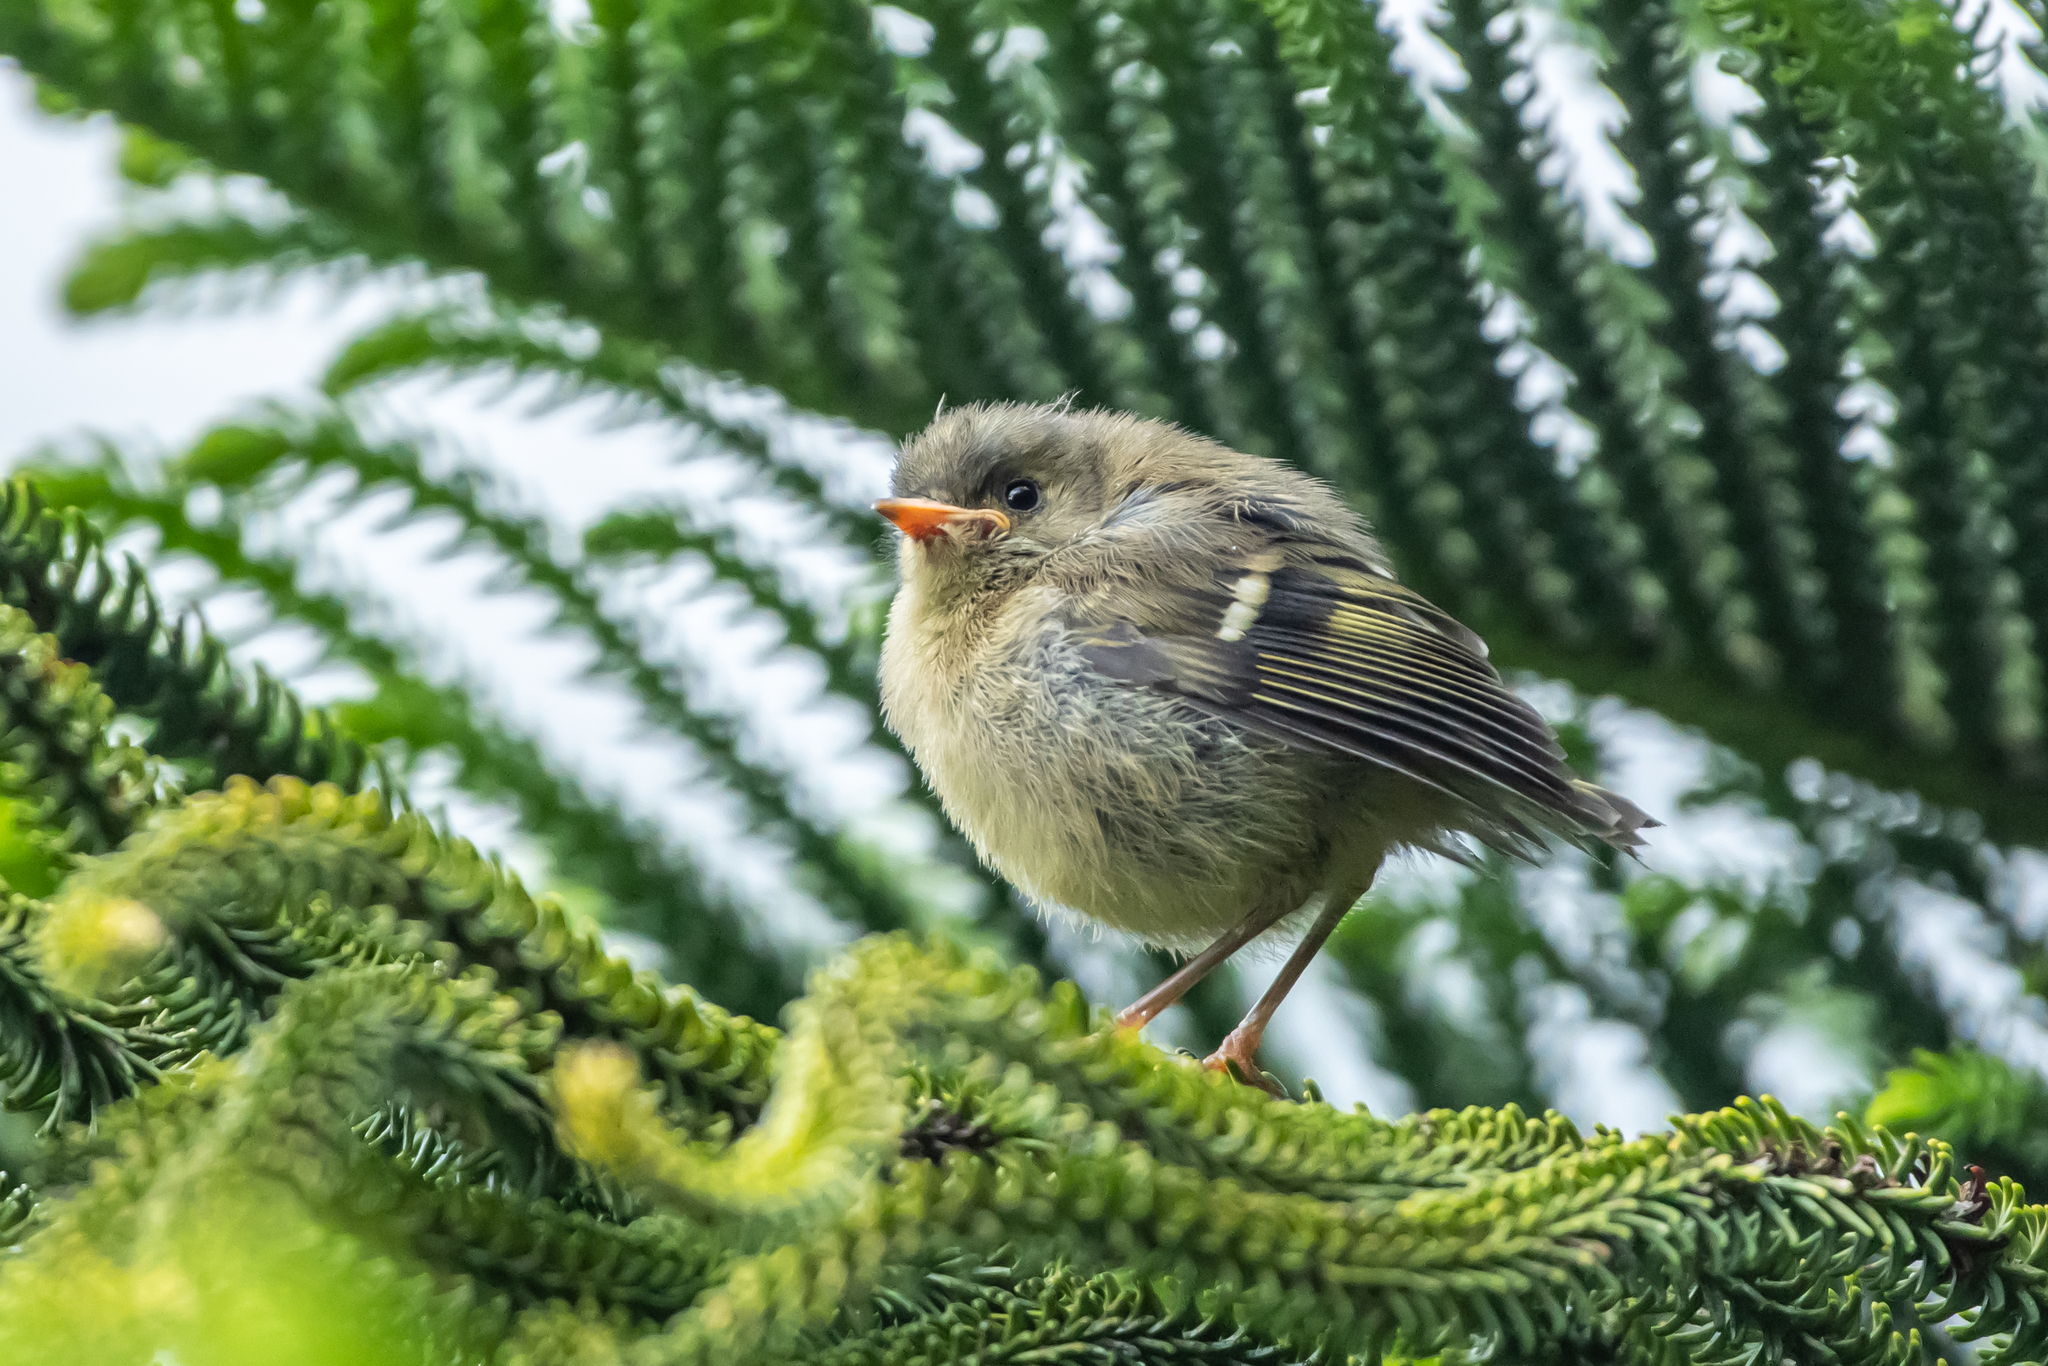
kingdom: Animalia
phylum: Chordata
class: Aves
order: Passeriformes
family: Regulidae
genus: Regulus
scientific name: Regulus regulus
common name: Goldcrest
